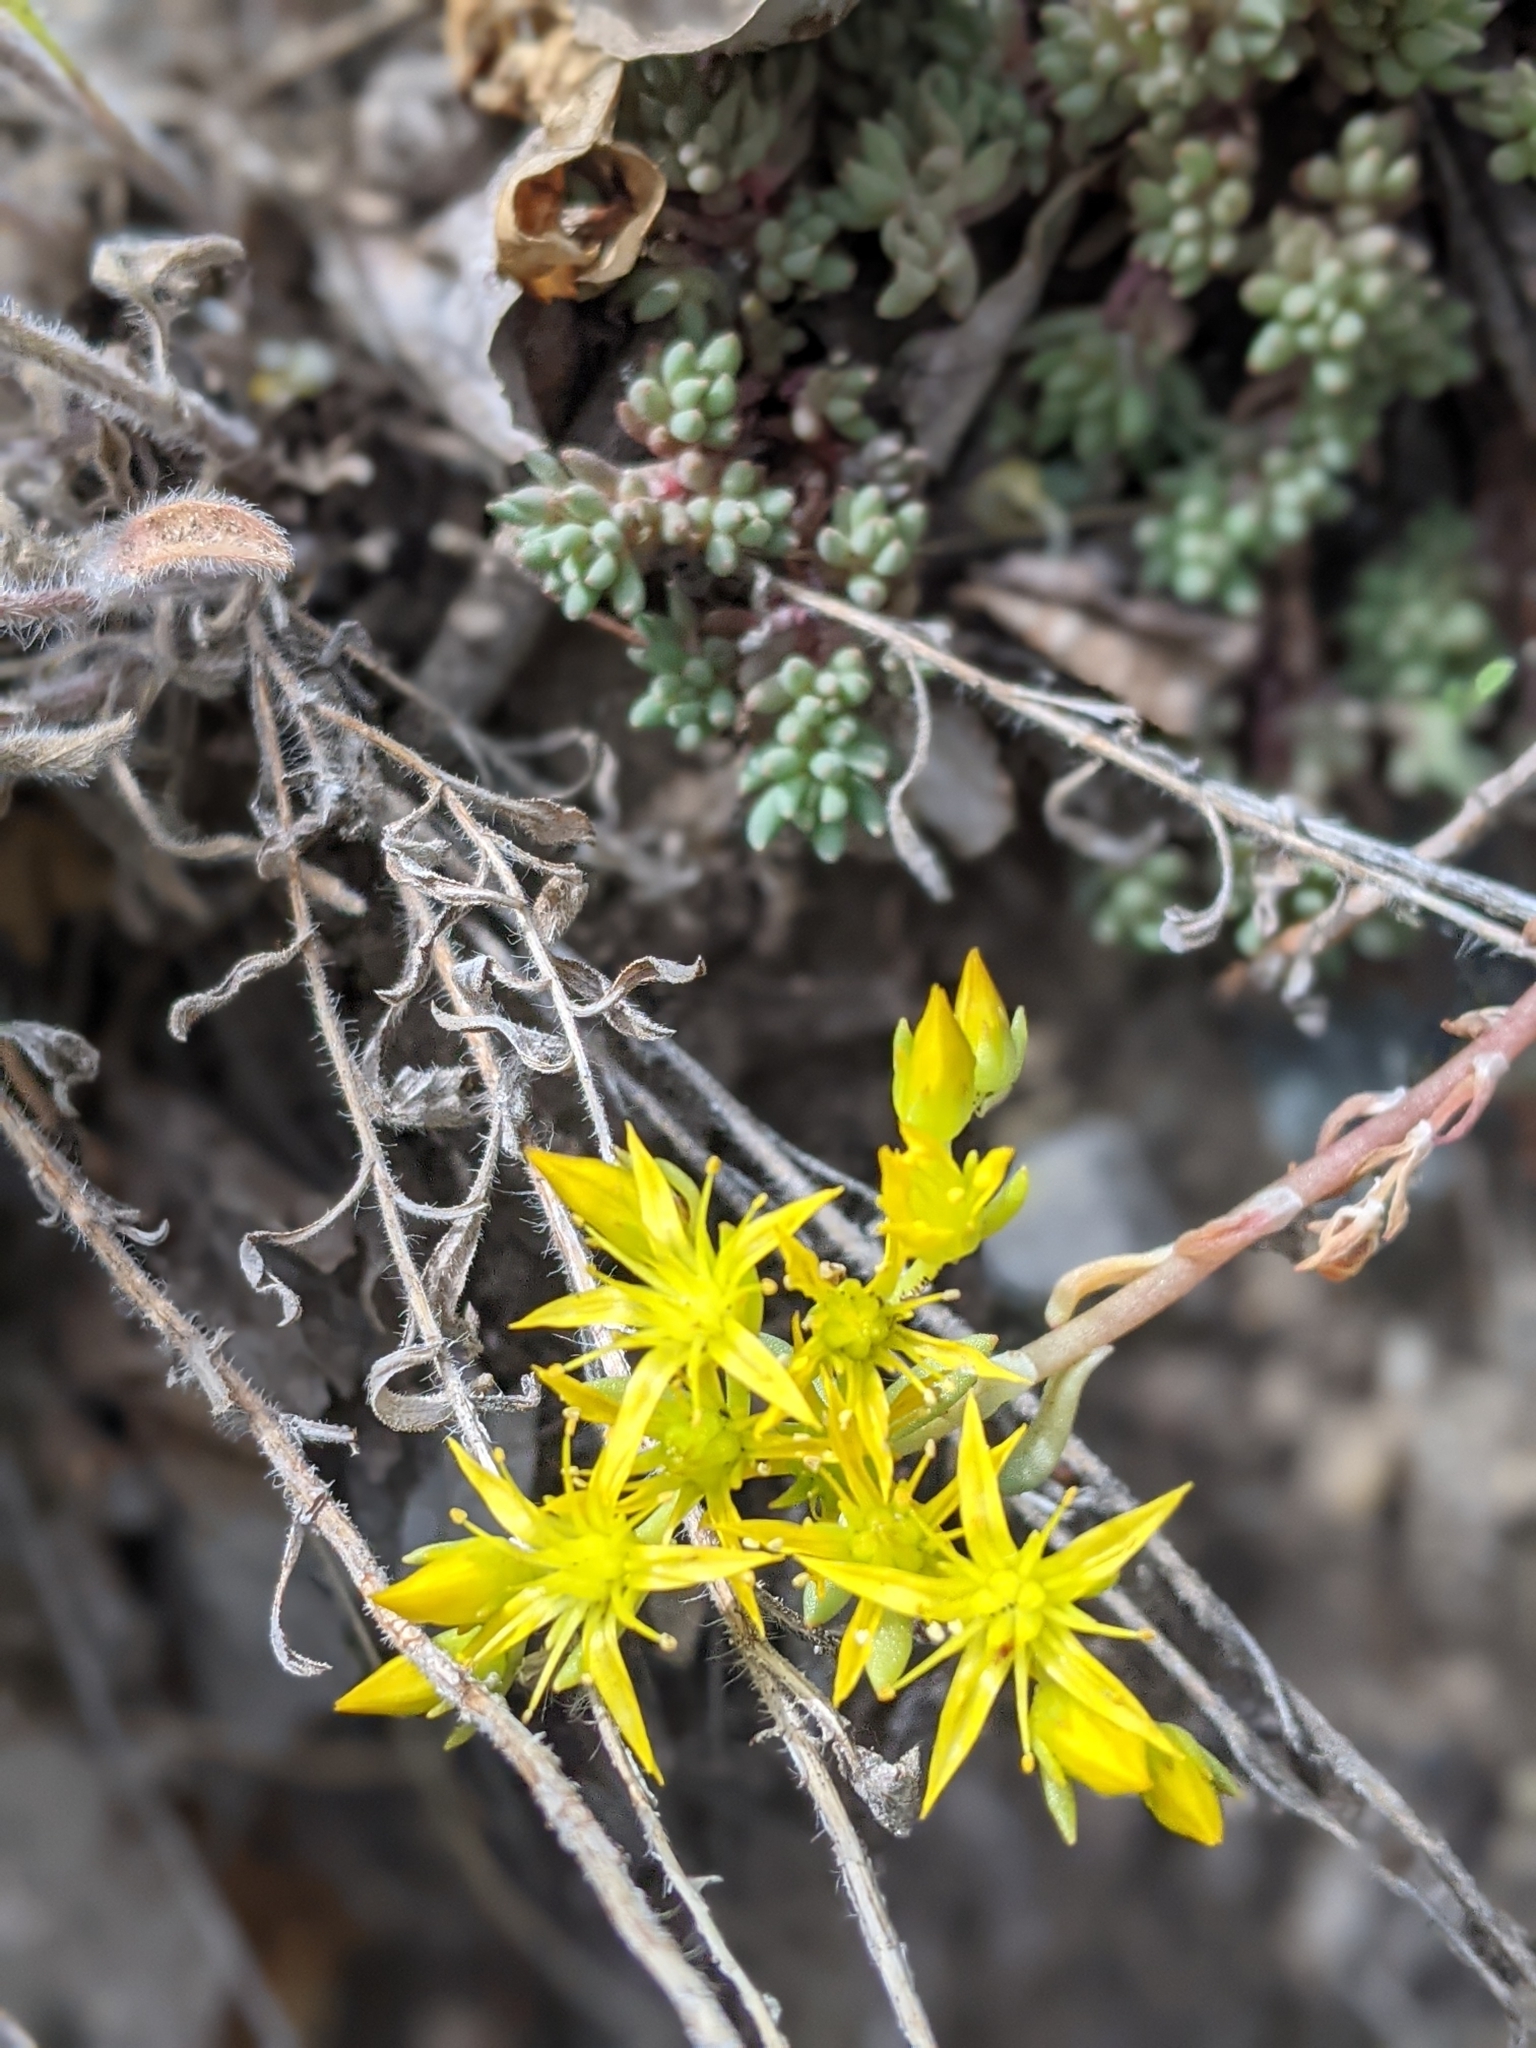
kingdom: Plantae
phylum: Tracheophyta
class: Magnoliopsida
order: Saxifragales
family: Crassulaceae
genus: Sedum
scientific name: Sedum lanceolatum
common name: Common stonecrop
